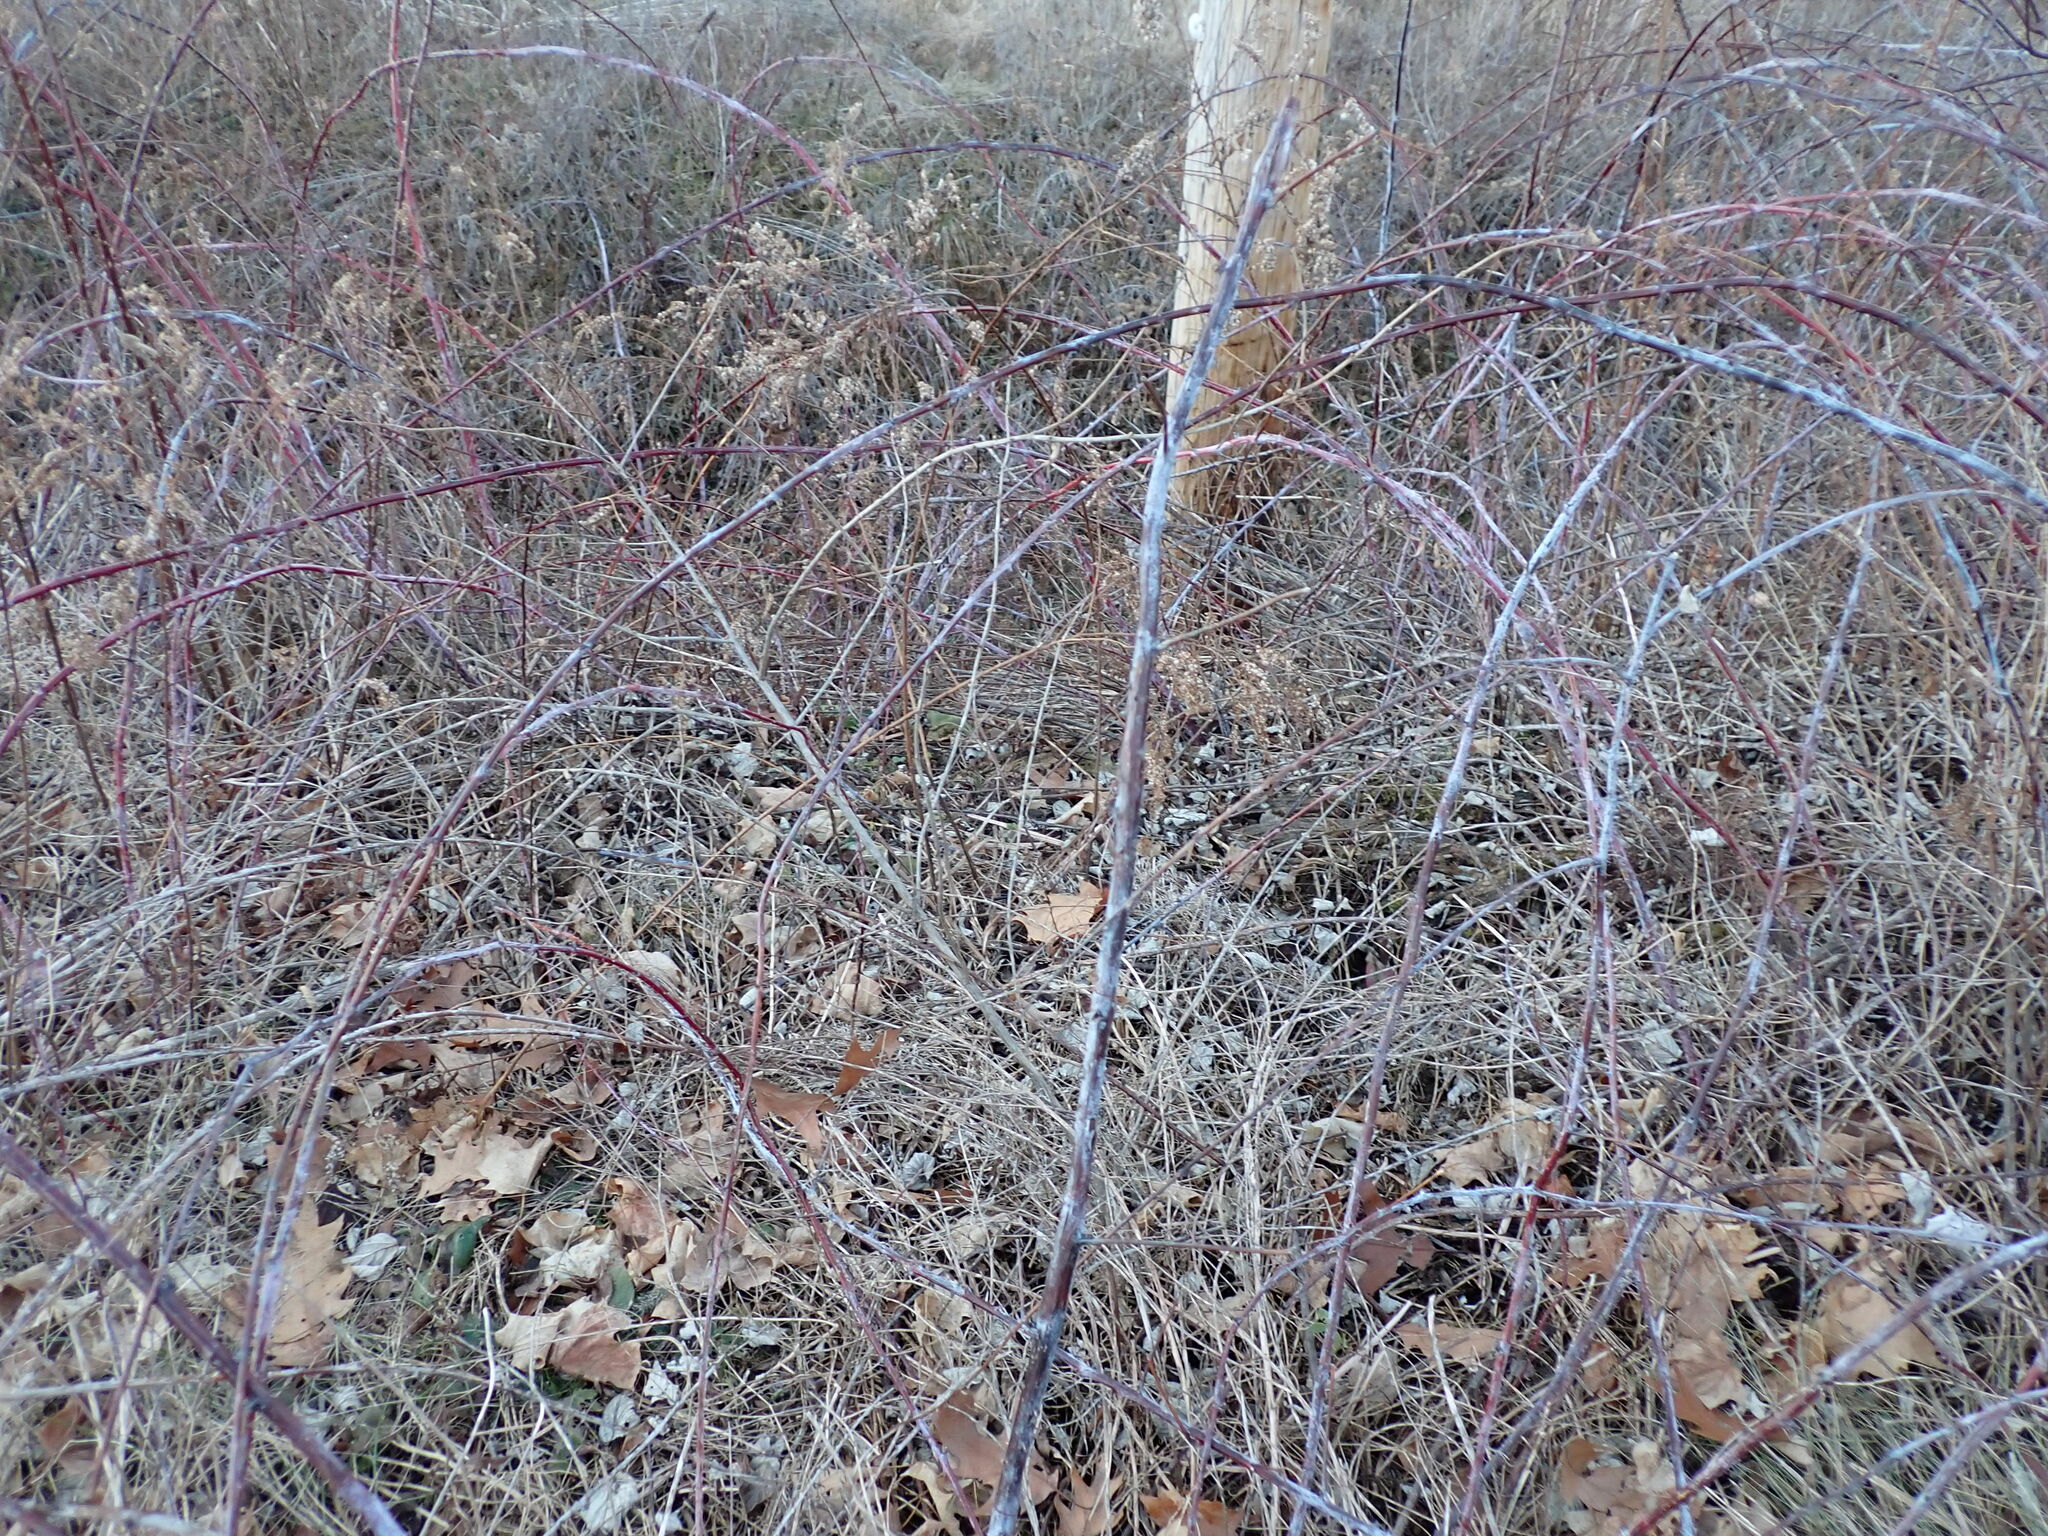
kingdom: Plantae
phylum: Tracheophyta
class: Magnoliopsida
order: Rosales
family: Rosaceae
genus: Rubus
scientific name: Rubus occidentalis
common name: Black raspberry
